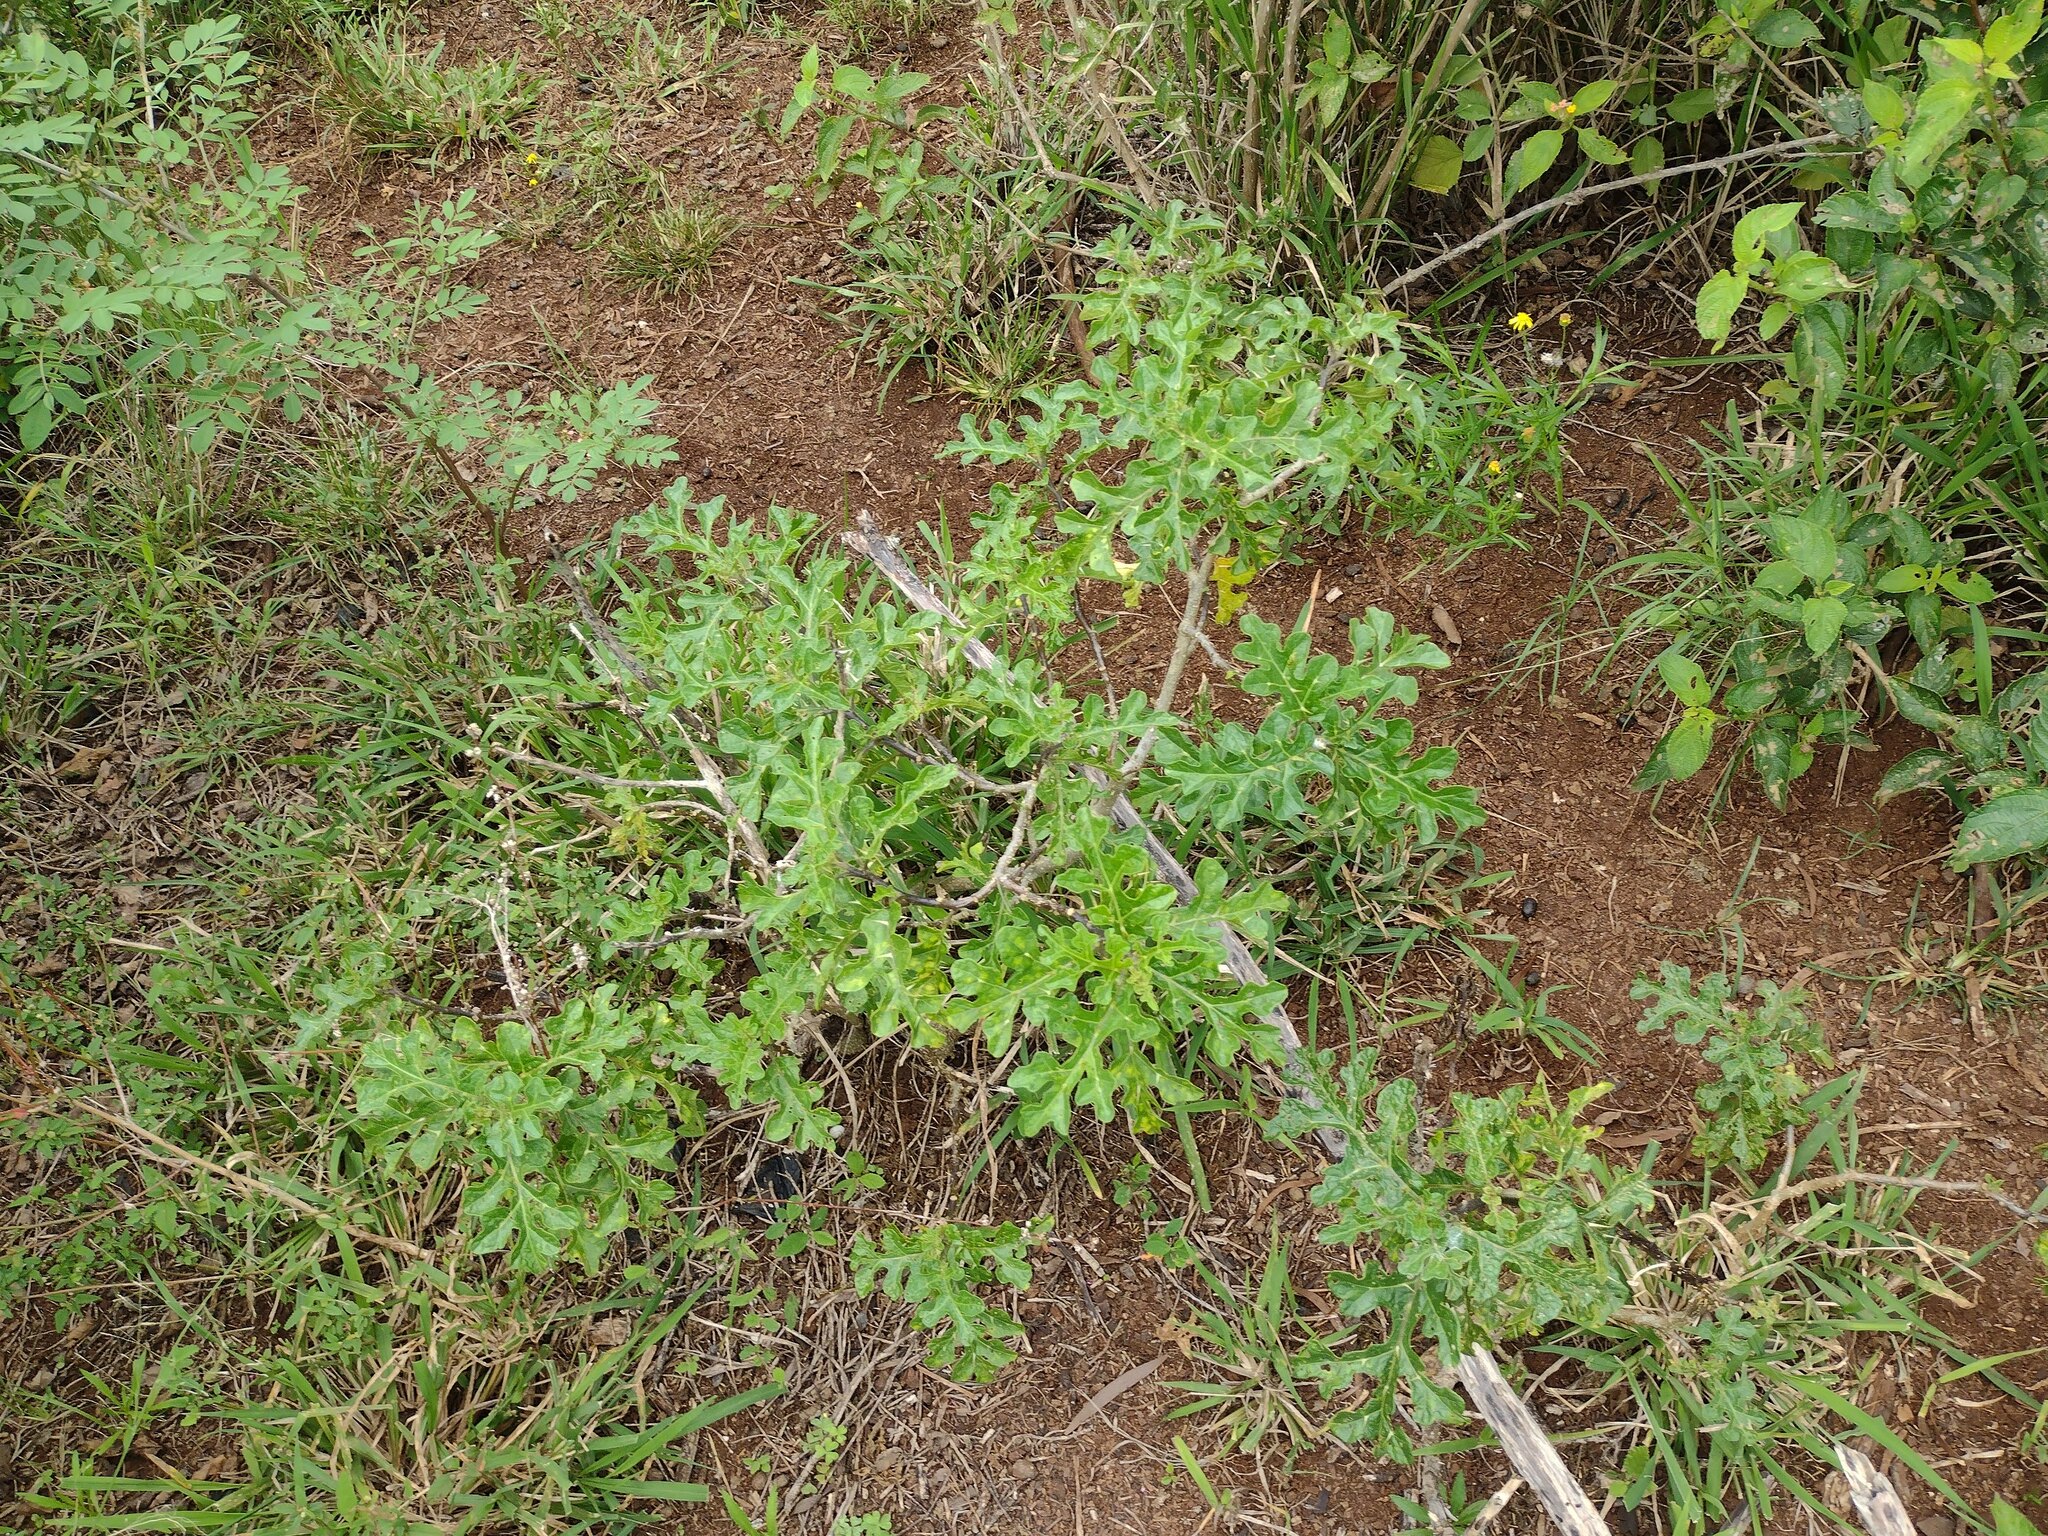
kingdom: Plantae
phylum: Tracheophyta
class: Magnoliopsida
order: Solanales
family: Solanaceae
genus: Solanum
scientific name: Solanum linnaeanum
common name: Nightshade
